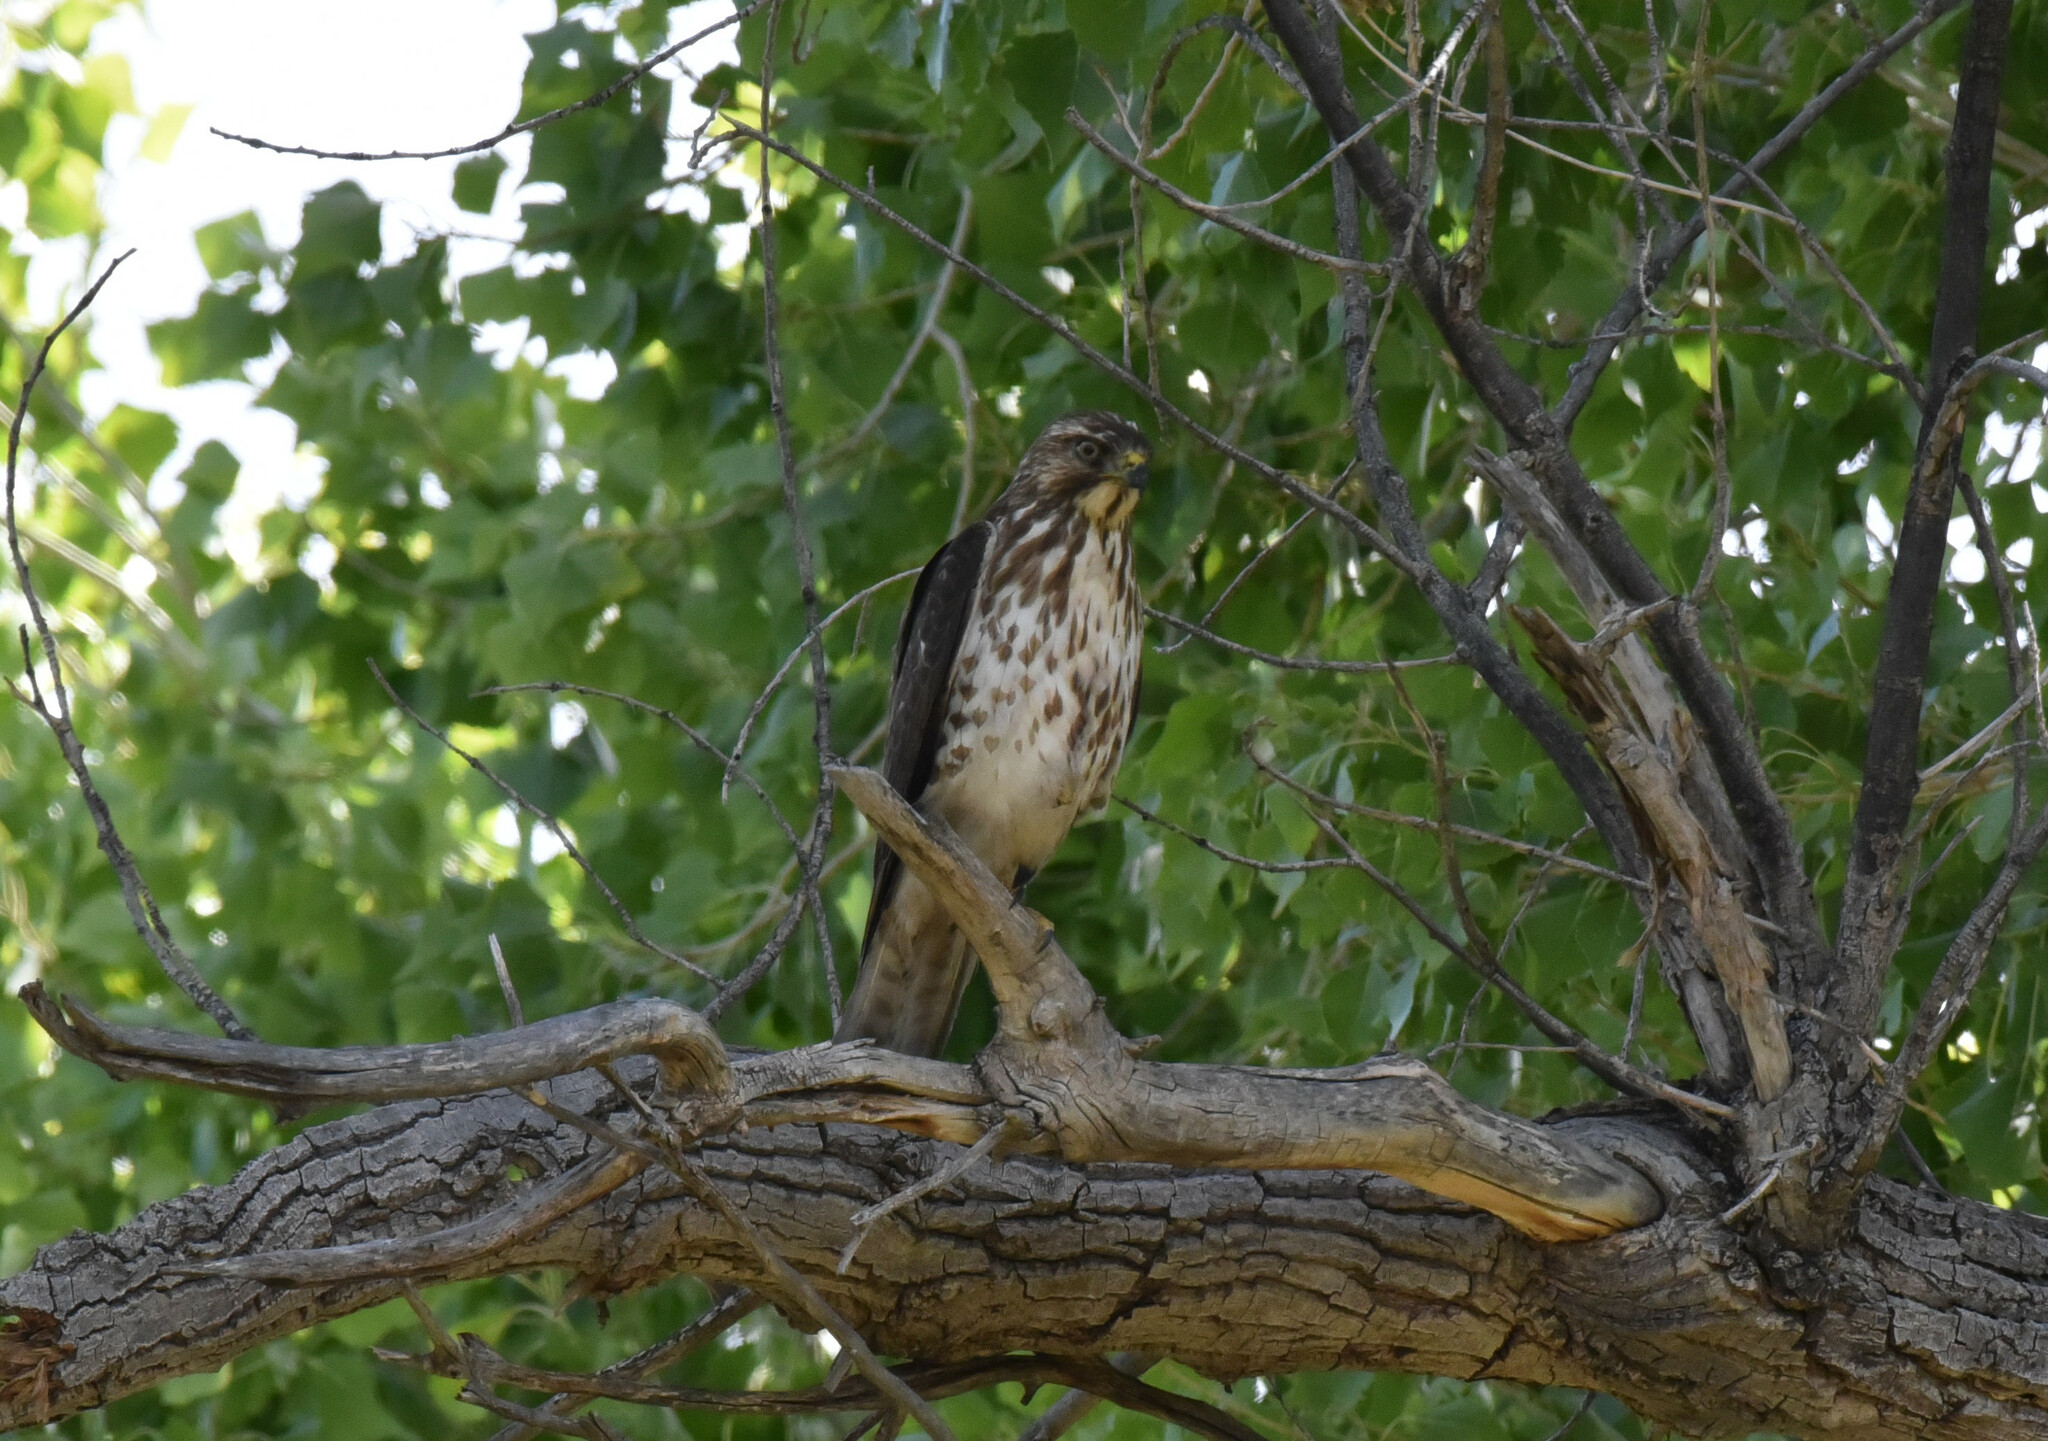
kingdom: Animalia
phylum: Chordata
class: Aves
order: Accipitriformes
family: Accipitridae
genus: Buteo
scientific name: Buteo platypterus
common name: Broad-winged hawk
